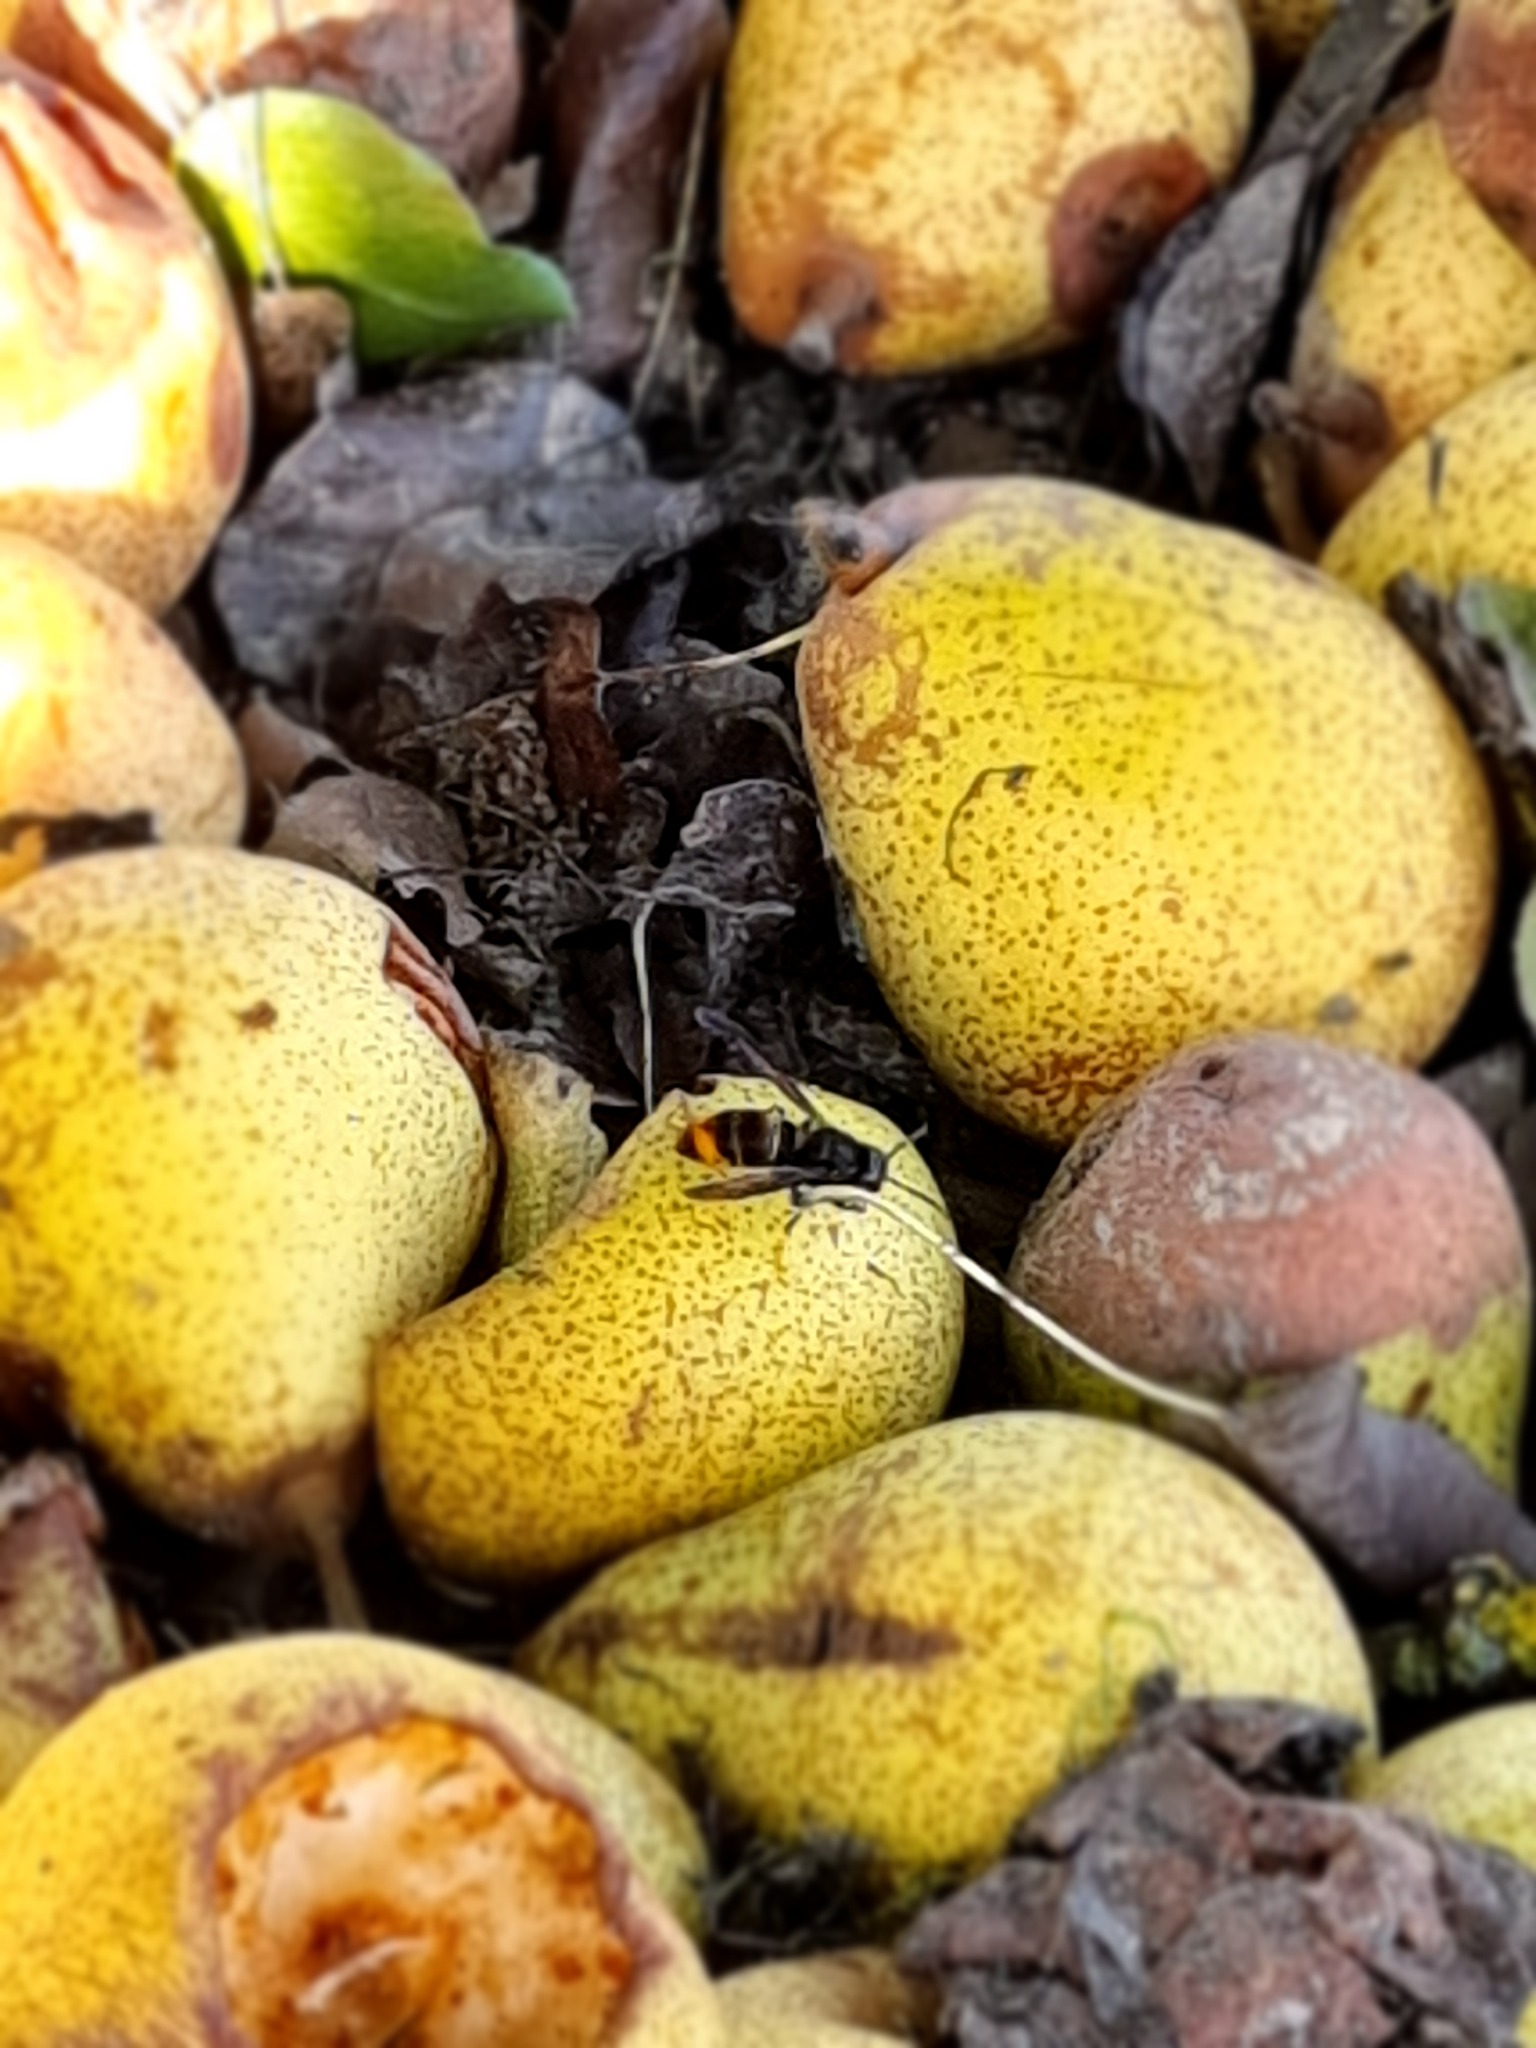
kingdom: Animalia
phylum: Arthropoda
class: Insecta
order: Hymenoptera
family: Vespidae
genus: Vespa
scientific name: Vespa velutina
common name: Asian hornet
